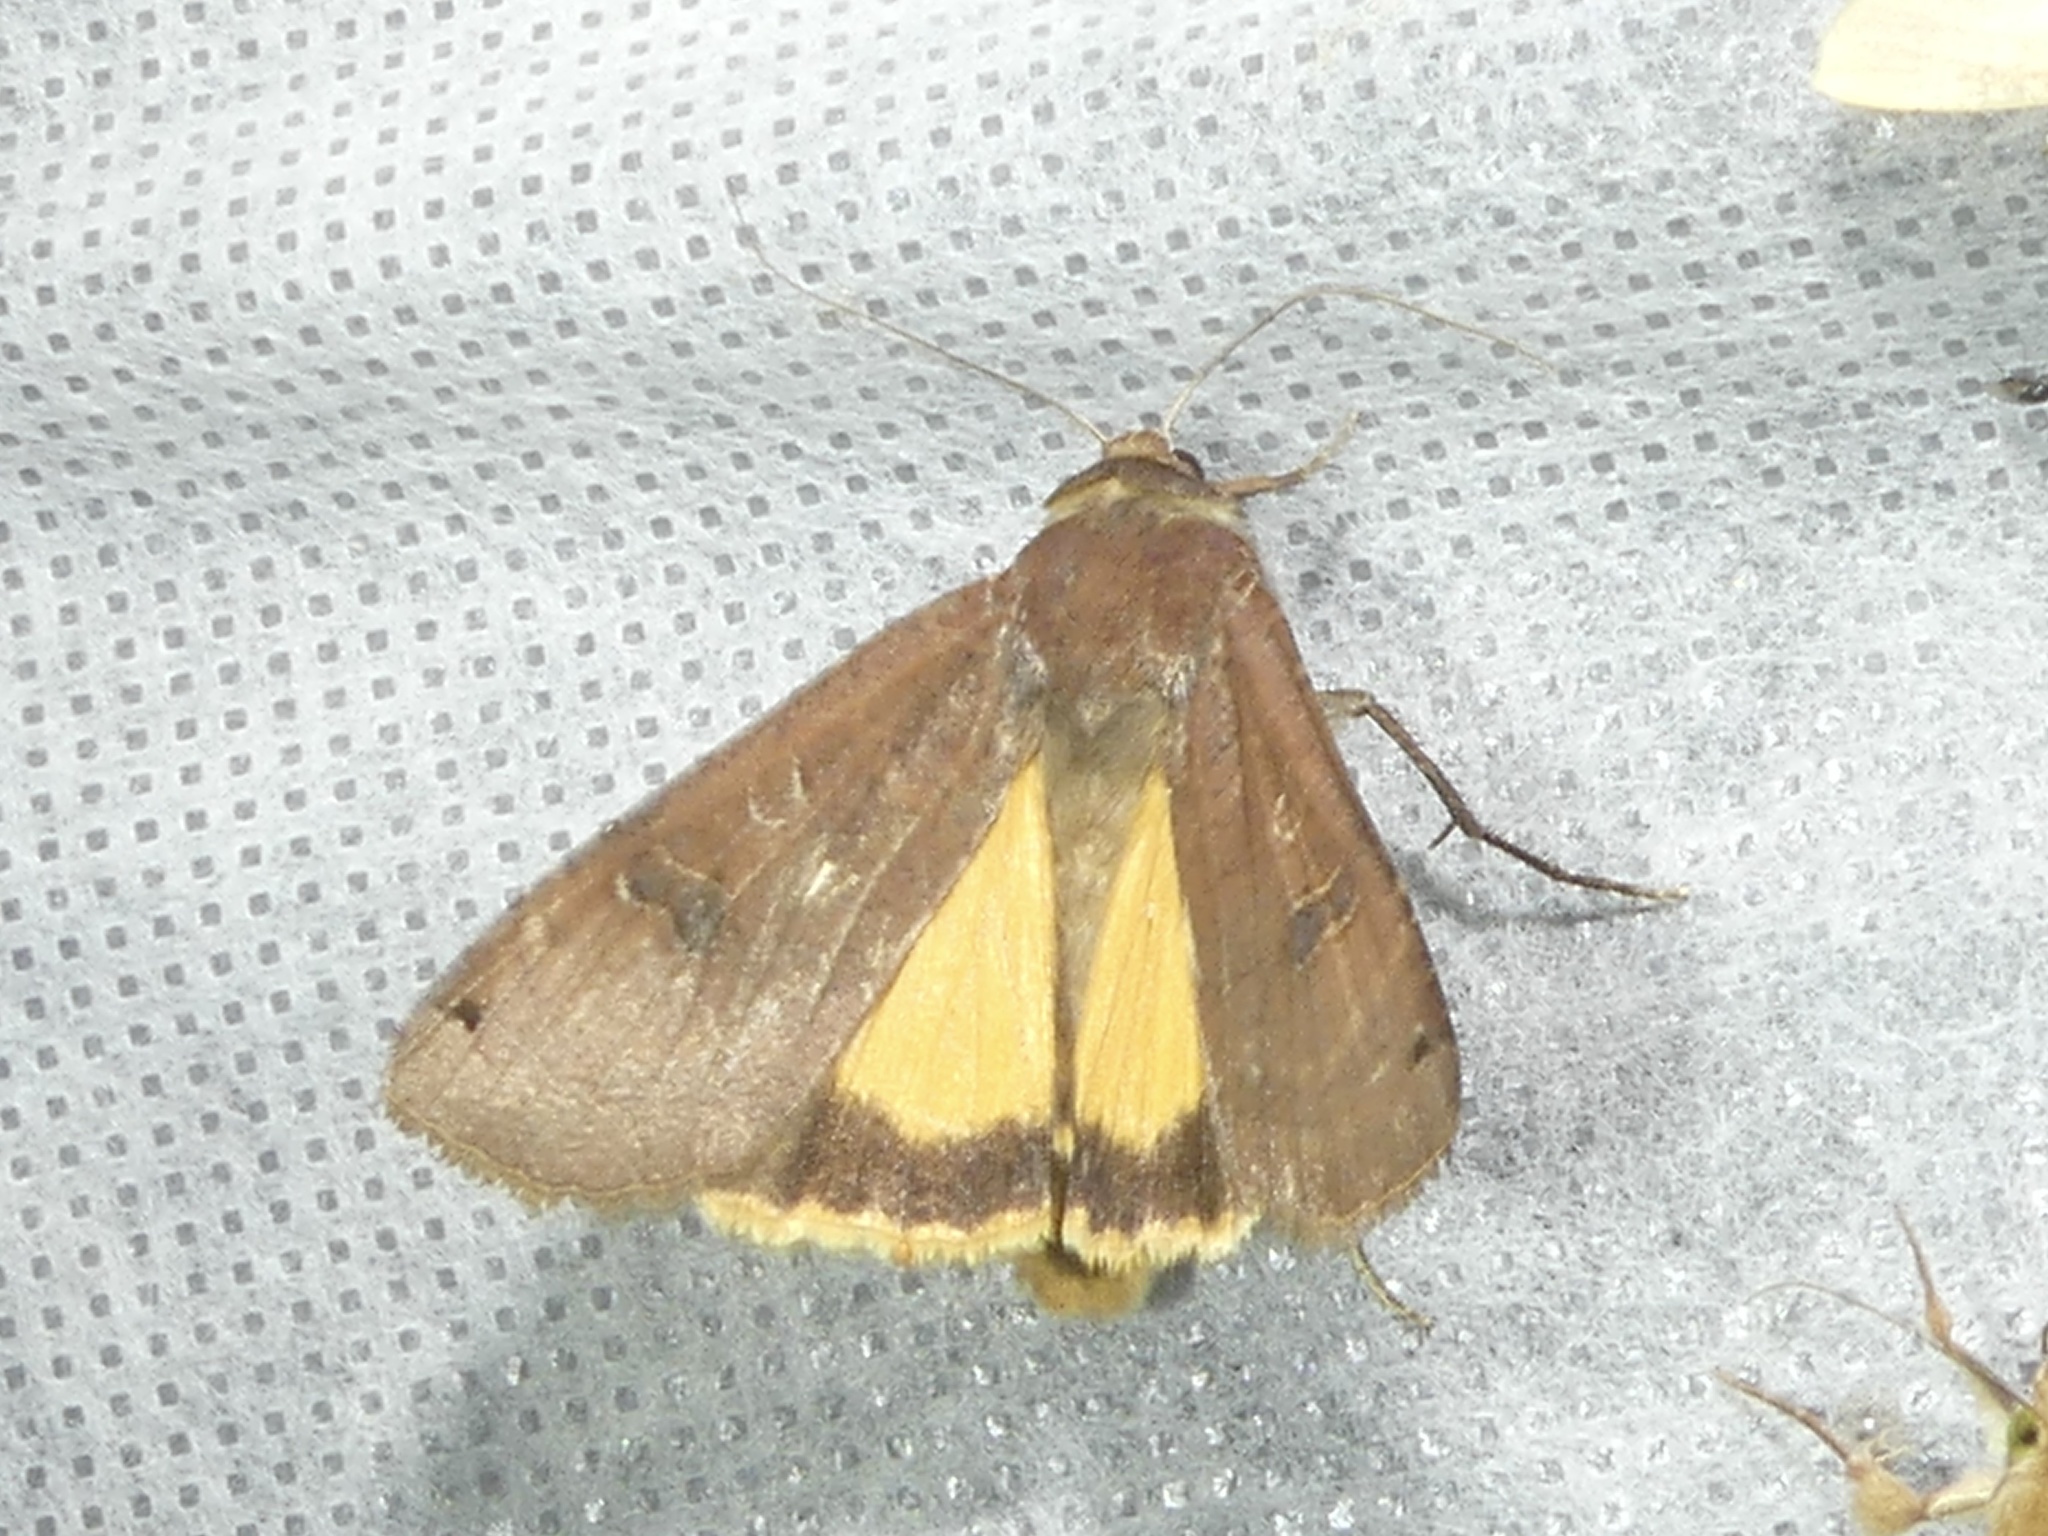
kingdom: Animalia
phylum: Arthropoda
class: Insecta
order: Lepidoptera
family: Noctuidae
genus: Noctua
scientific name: Noctua pronuba
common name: Large yellow underwing
